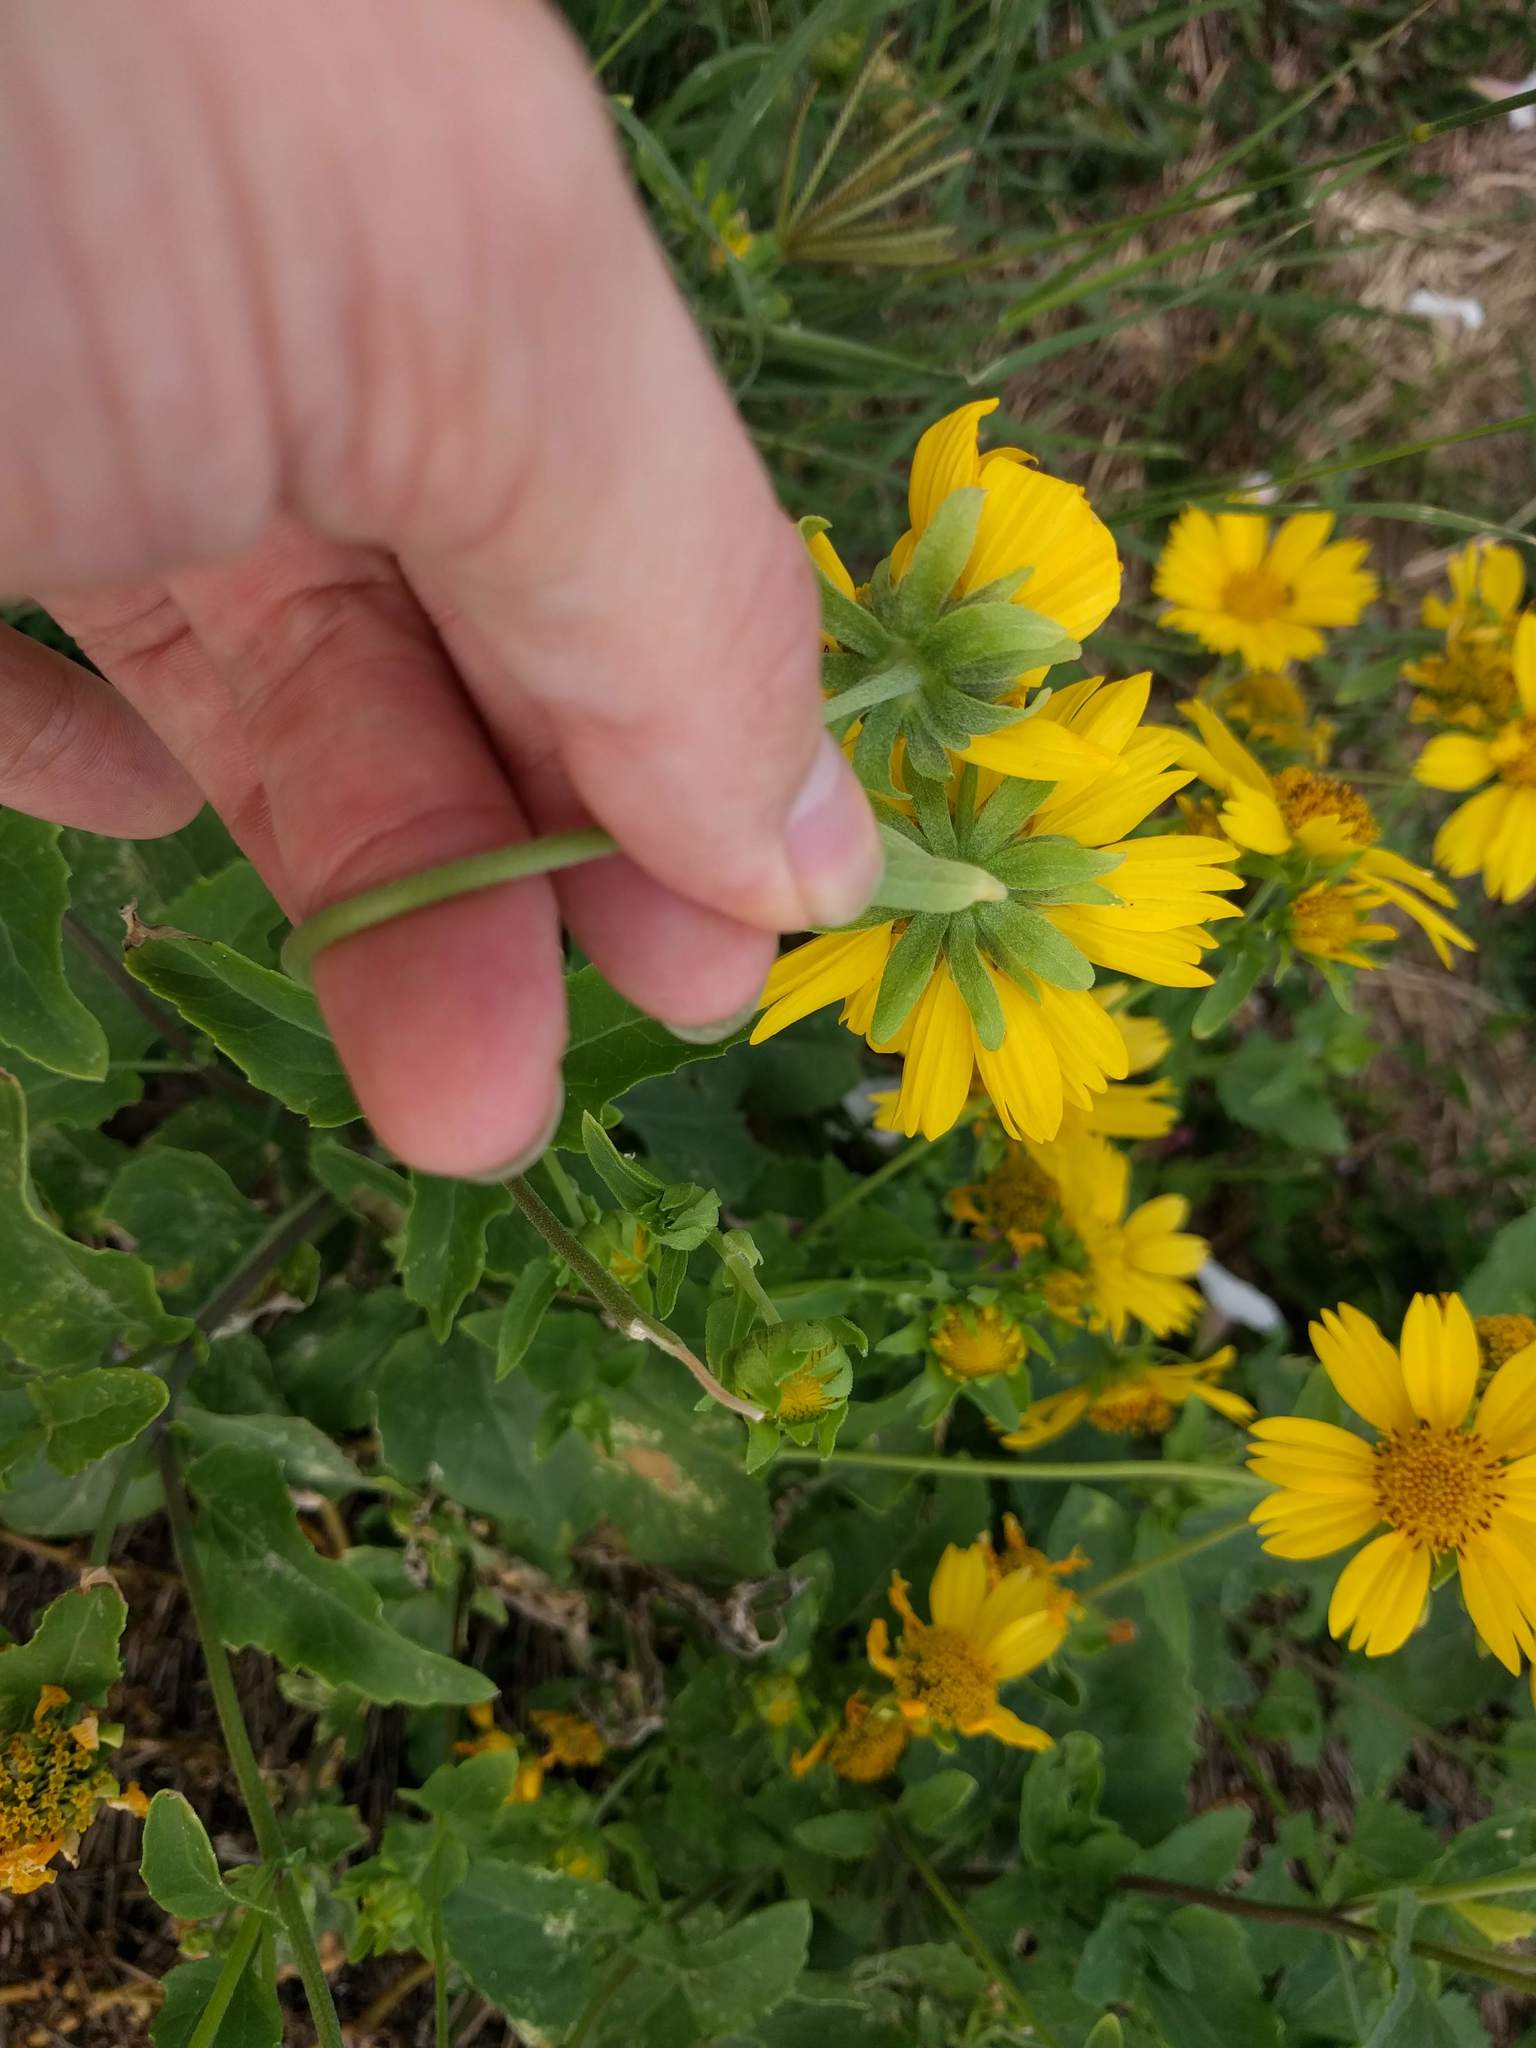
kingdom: Plantae
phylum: Tracheophyta
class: Magnoliopsida
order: Asterales
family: Asteraceae
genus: Verbesina
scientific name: Verbesina encelioides
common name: Golden crownbeard
